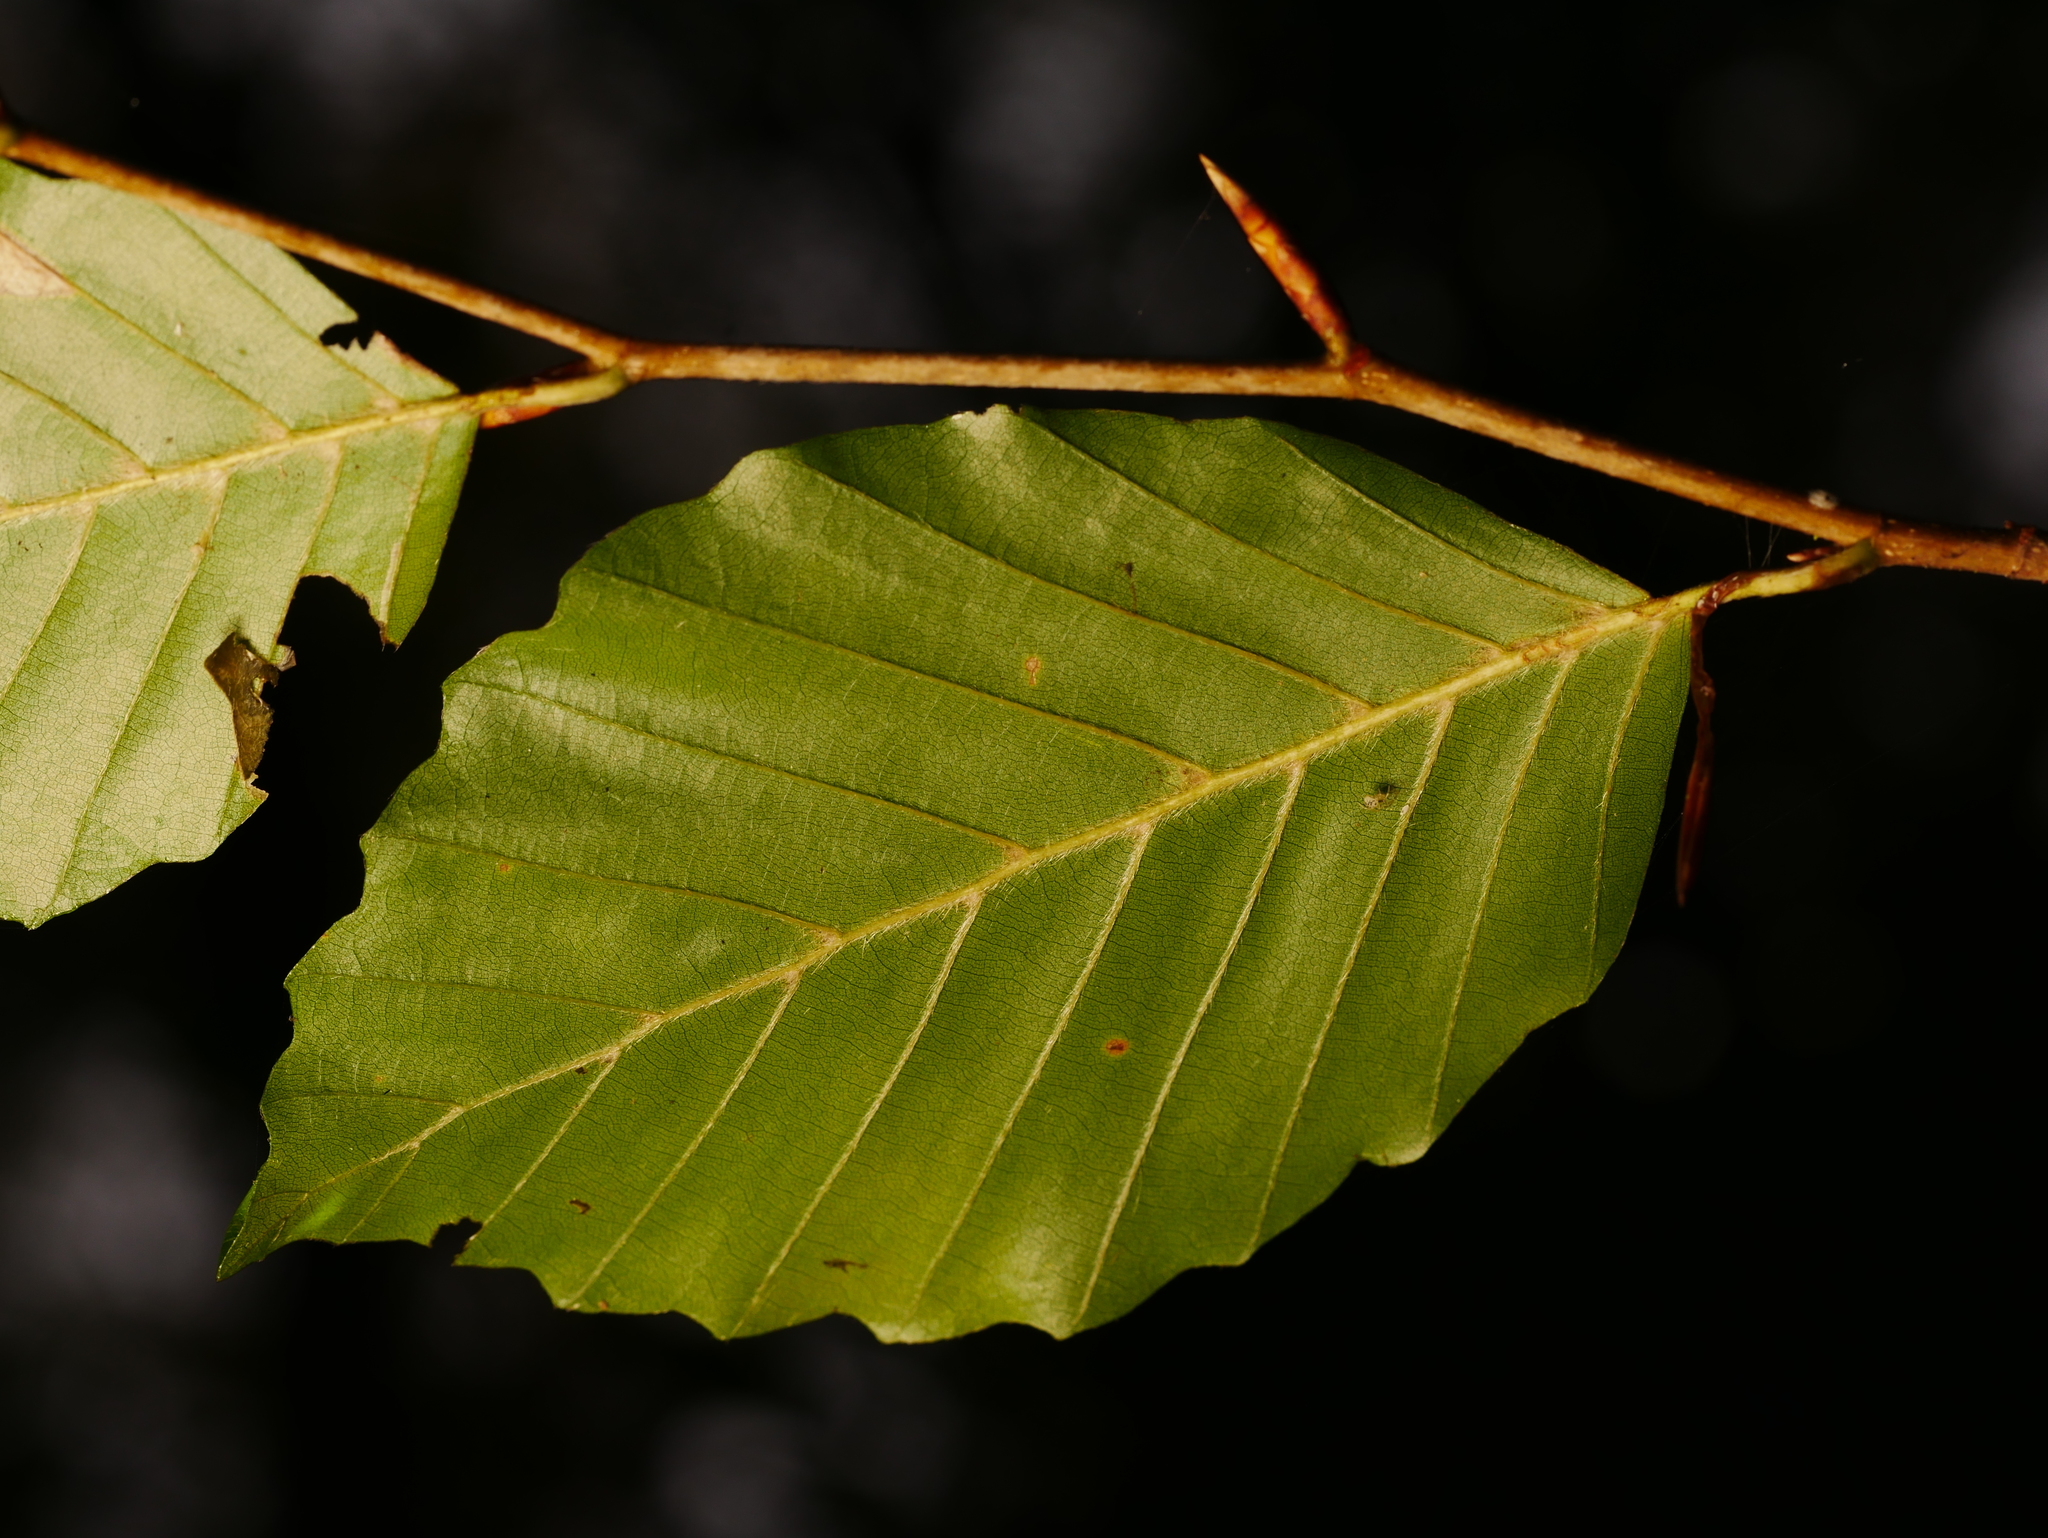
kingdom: Plantae
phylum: Tracheophyta
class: Magnoliopsida
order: Fagales
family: Fagaceae
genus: Fagus
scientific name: Fagus sylvatica
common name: Beech
